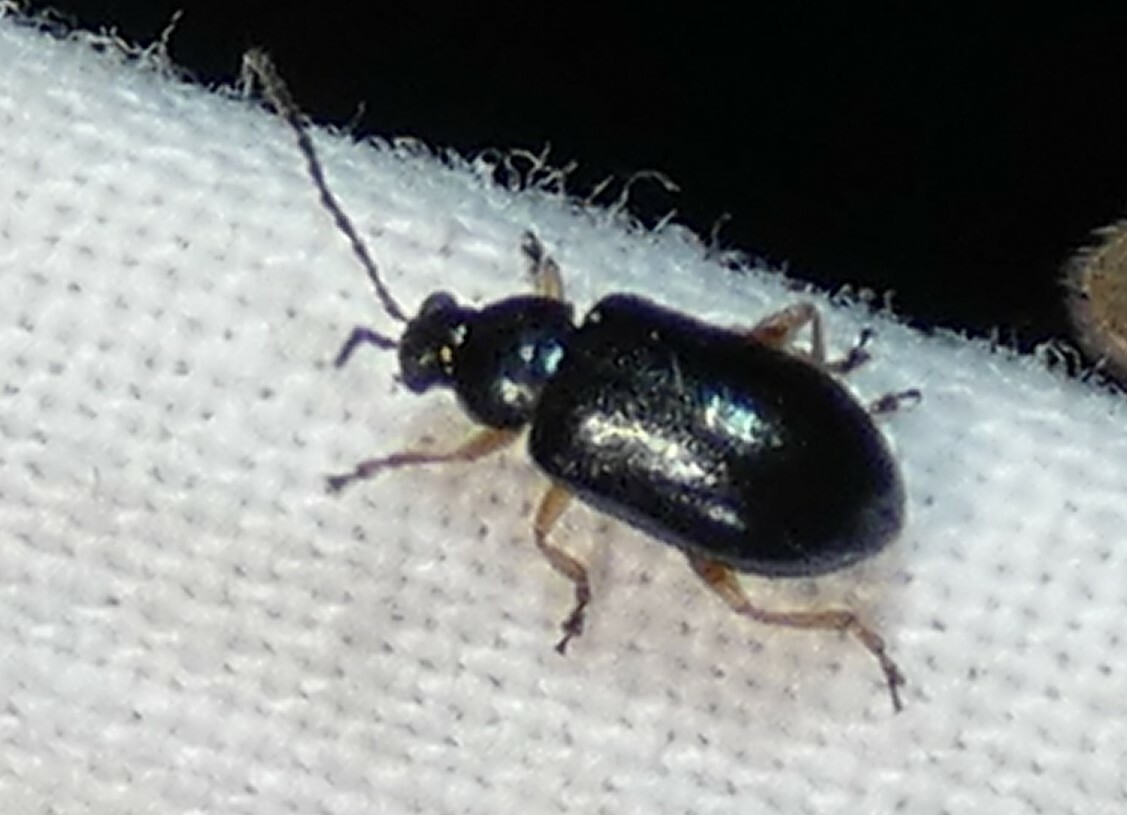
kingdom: Animalia
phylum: Arthropoda
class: Insecta
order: Coleoptera
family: Chrysomelidae
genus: Lysathia
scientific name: Lysathia ludoviciana
